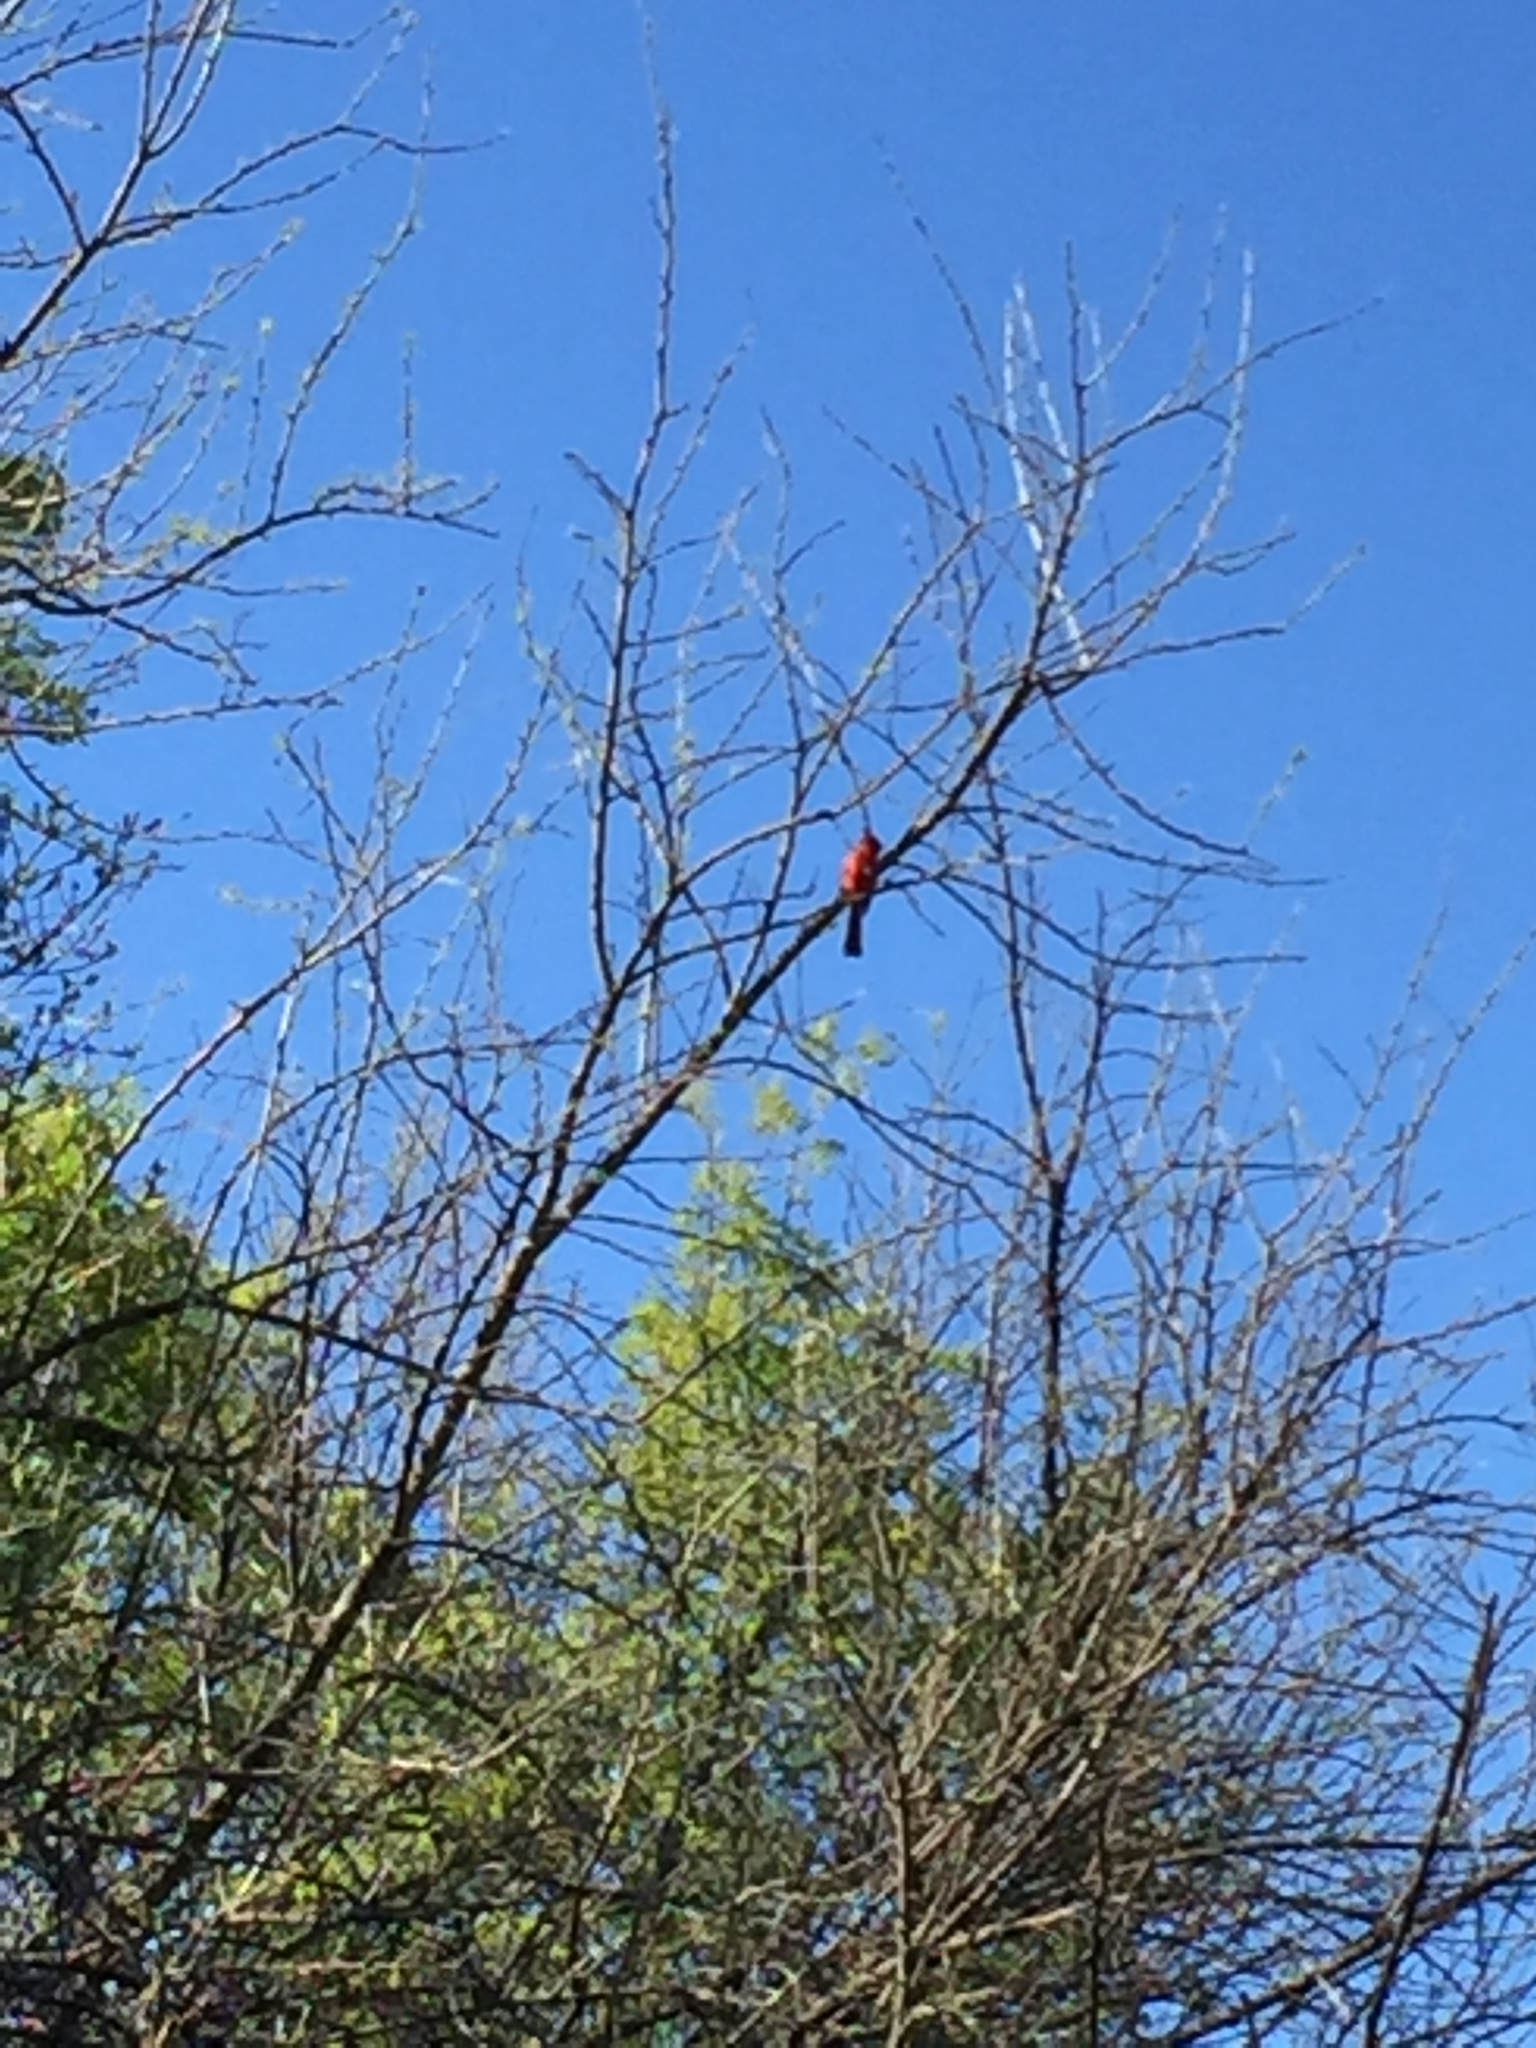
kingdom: Animalia
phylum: Chordata
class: Aves
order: Passeriformes
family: Cardinalidae
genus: Cardinalis
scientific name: Cardinalis cardinalis
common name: Northern cardinal
